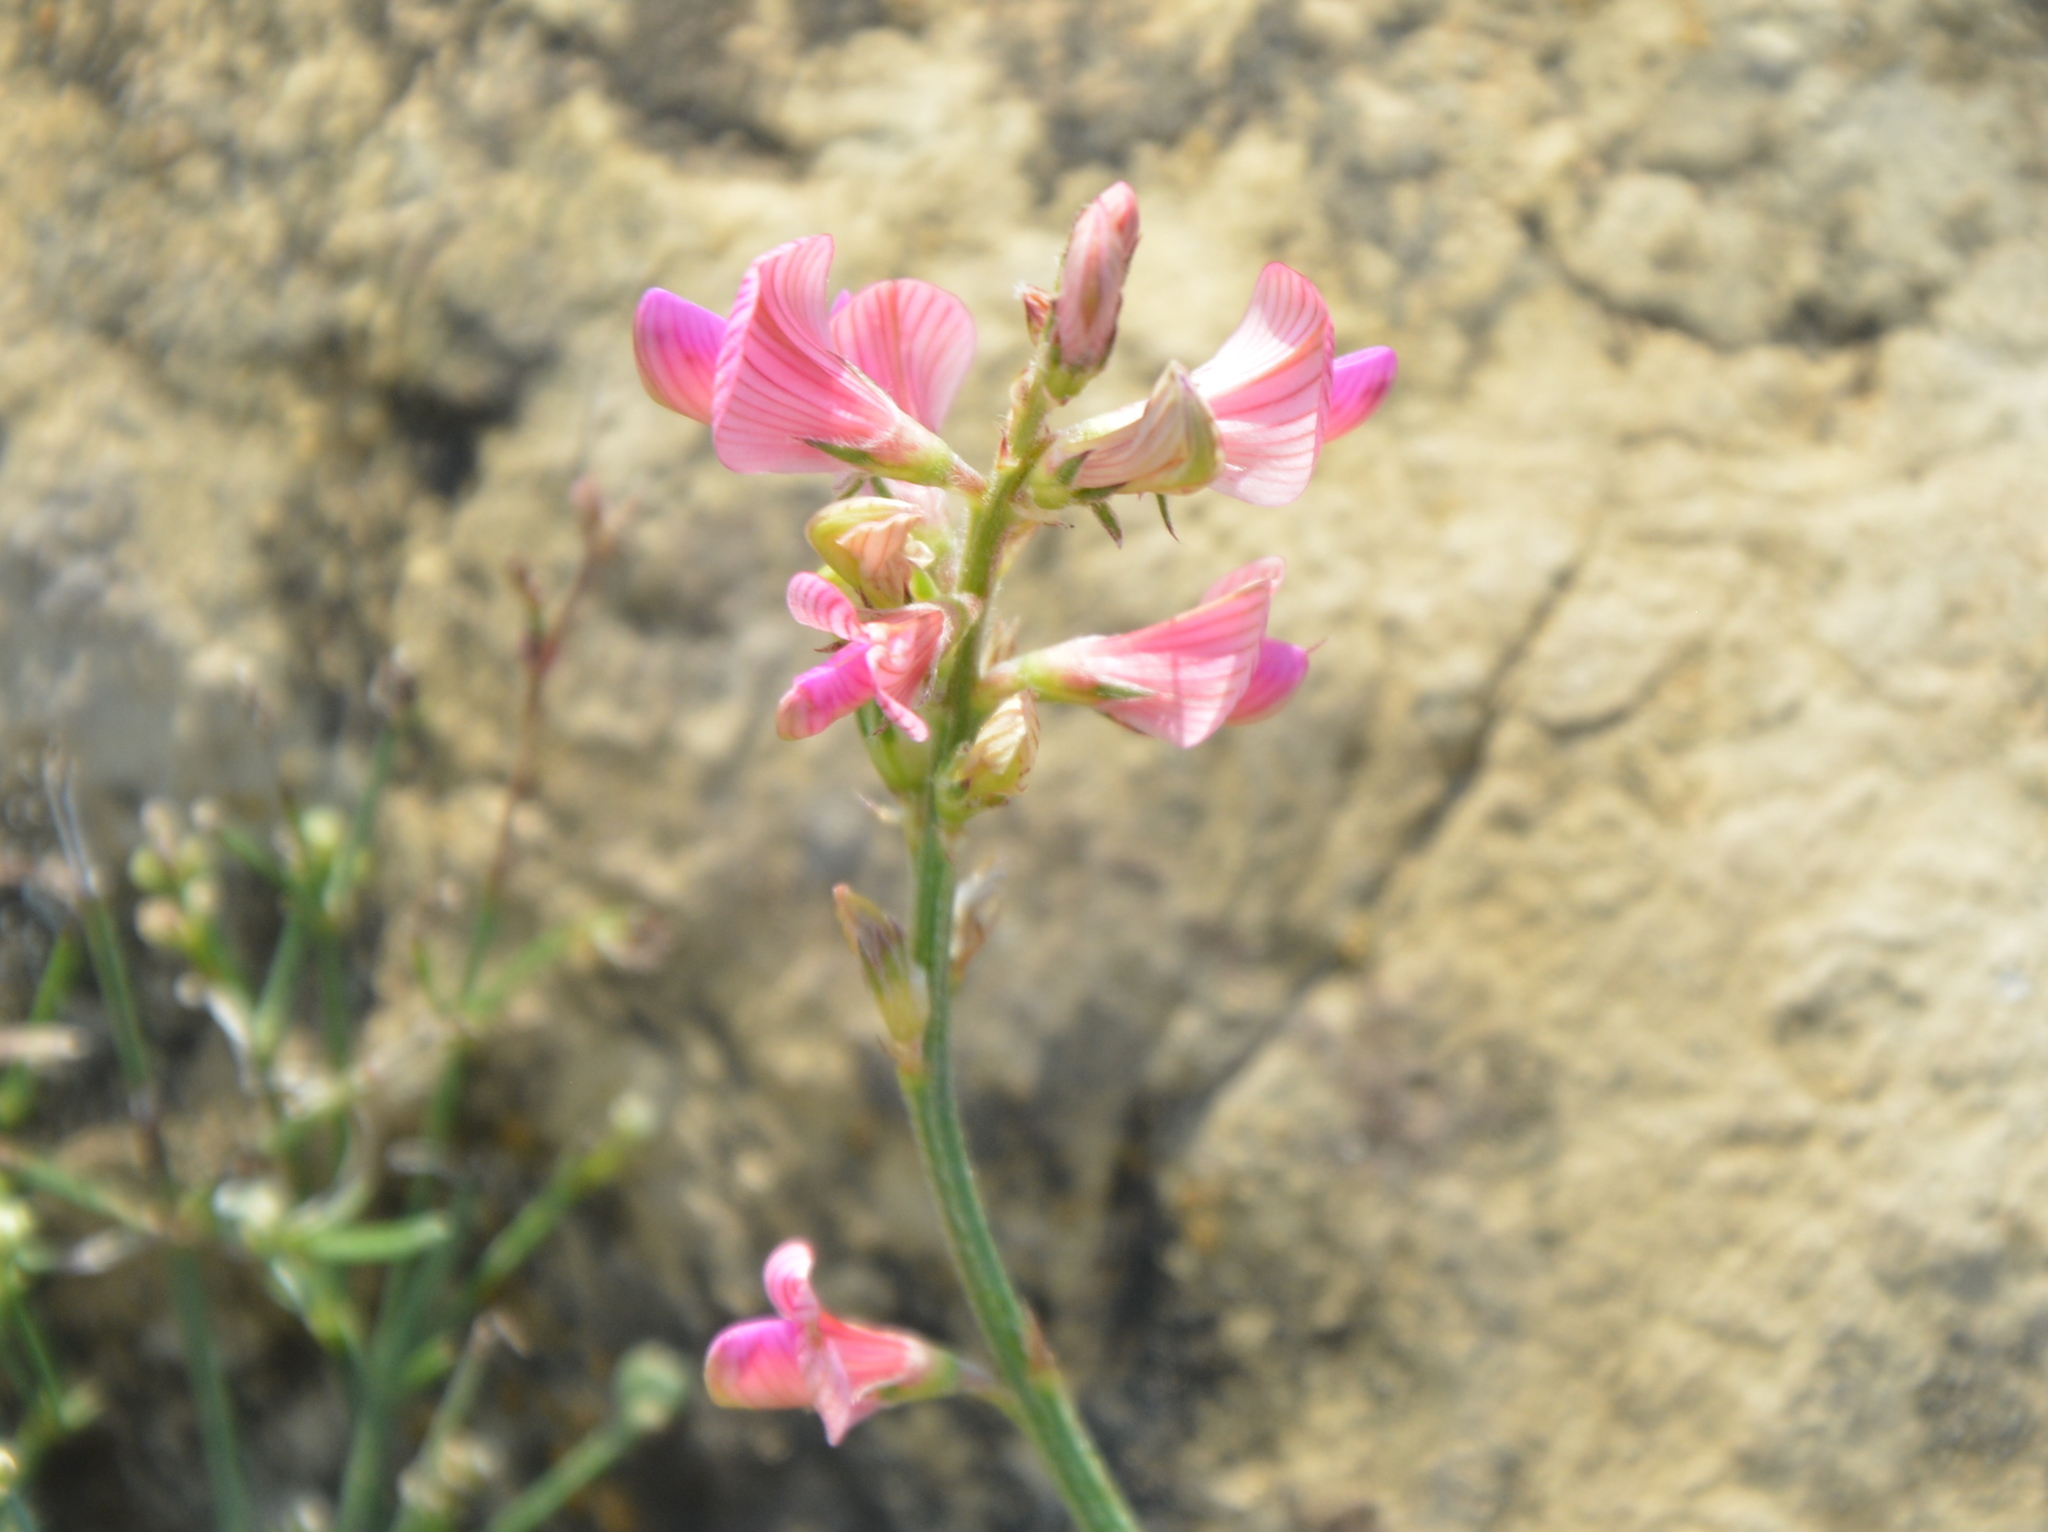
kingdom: Plantae
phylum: Tracheophyta
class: Magnoliopsida
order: Fabales
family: Fabaceae
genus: Onobrychis
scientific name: Onobrychis viciifolia
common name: Sainfoin
